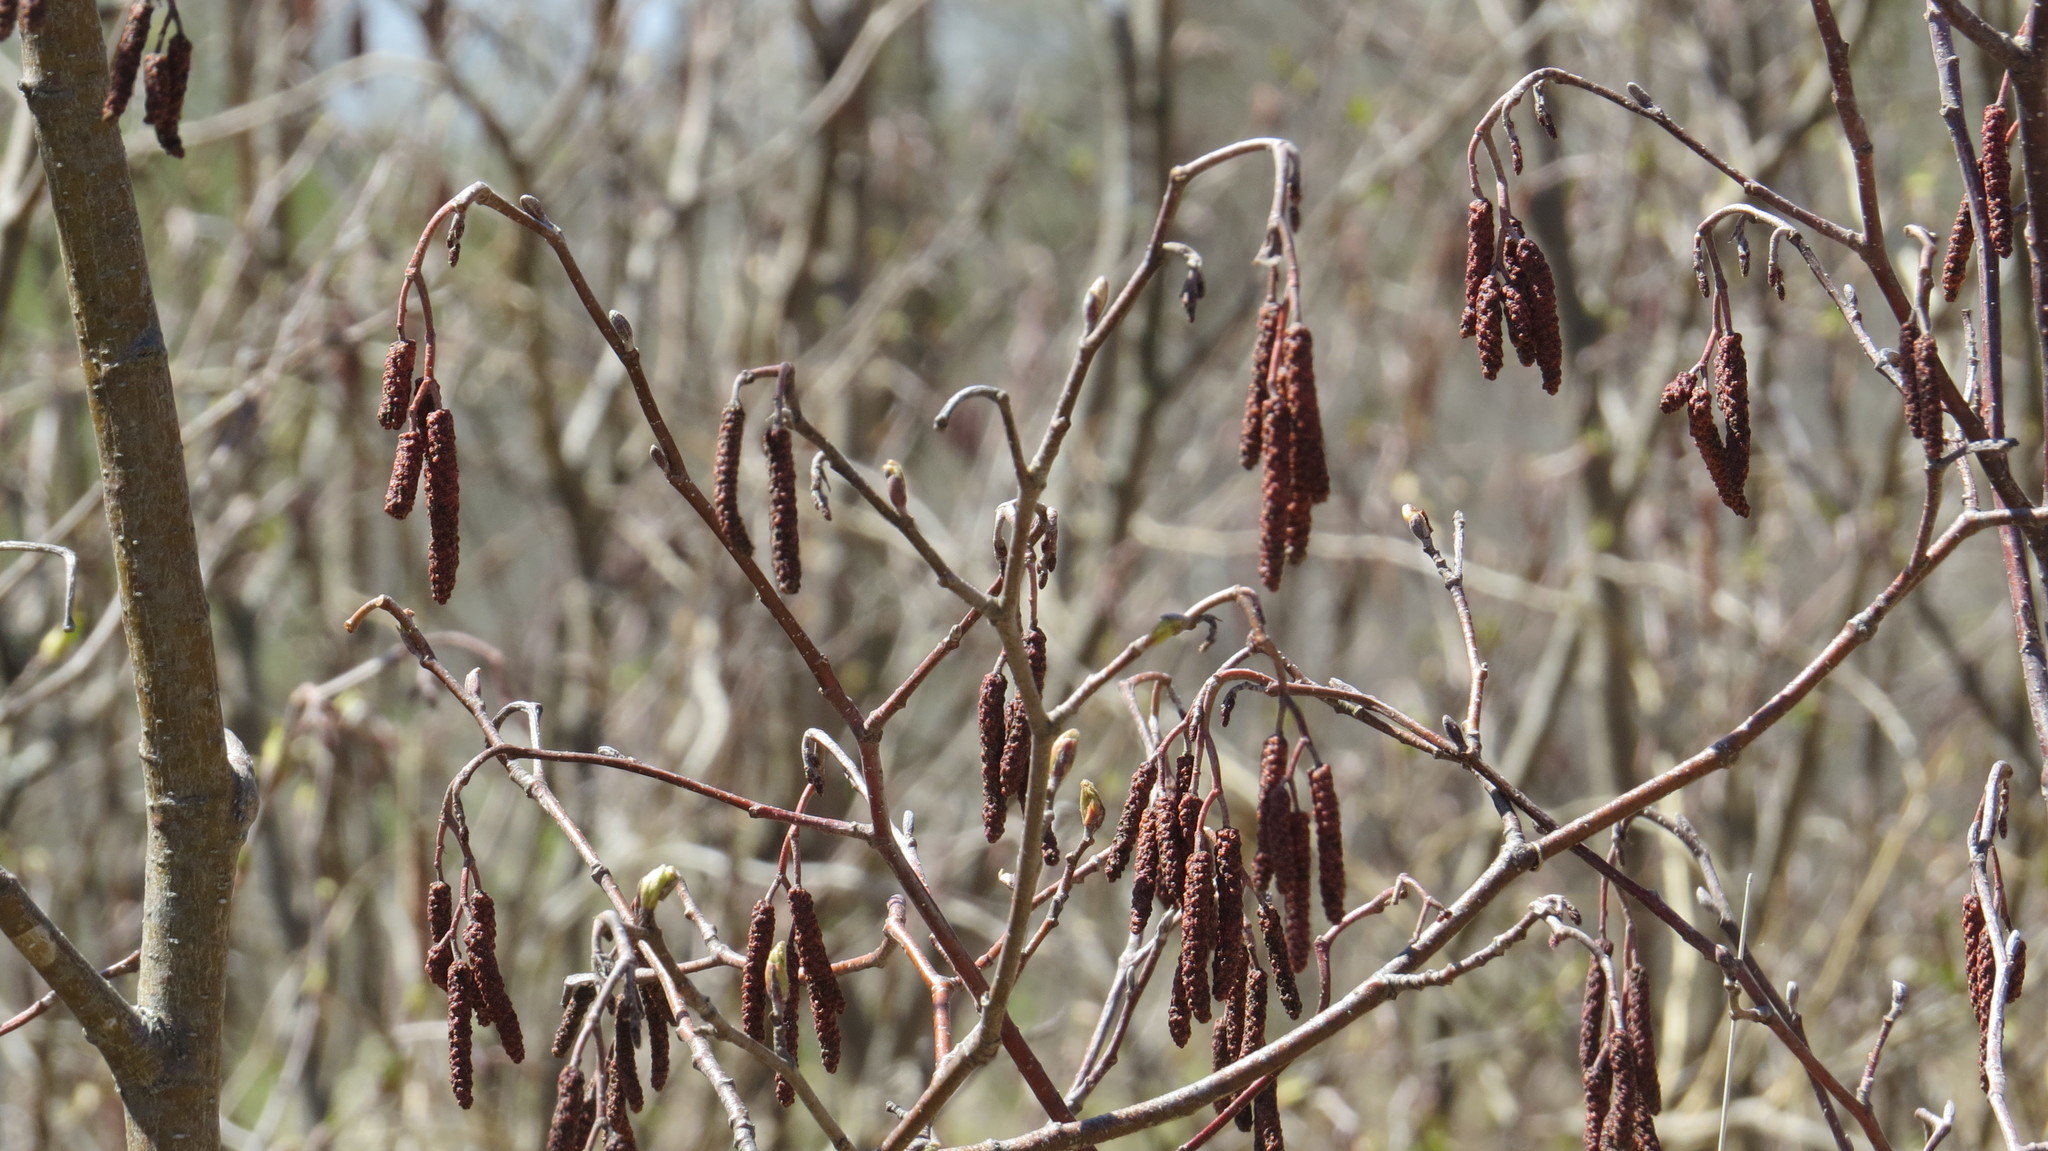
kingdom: Plantae
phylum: Tracheophyta
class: Magnoliopsida
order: Fagales
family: Betulaceae
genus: Alnus
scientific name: Alnus incana
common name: Grey alder
